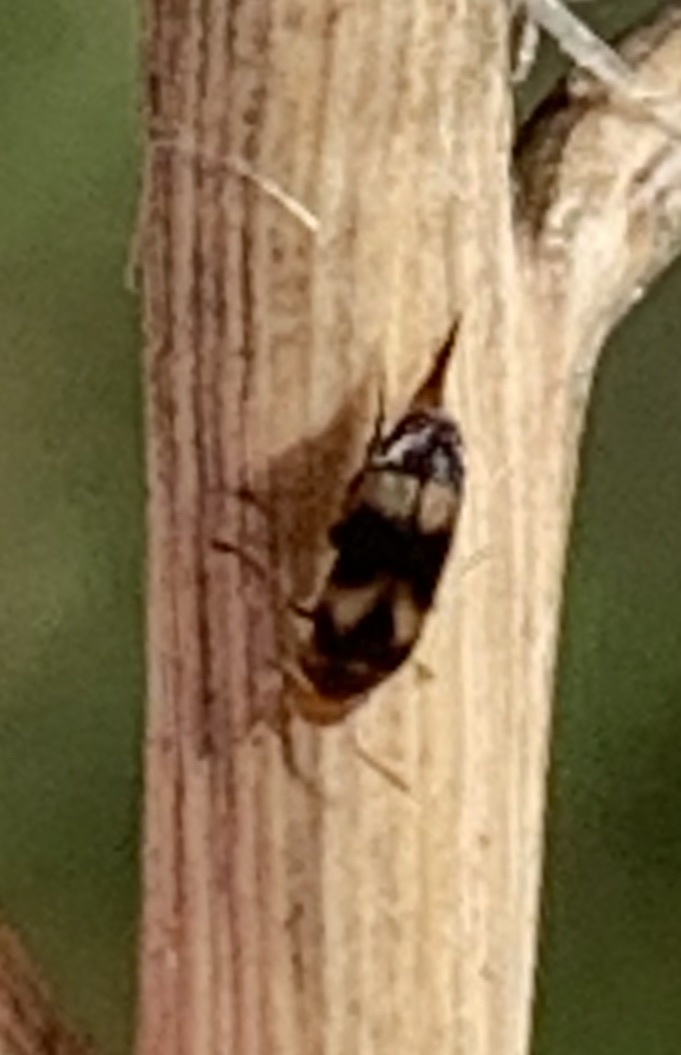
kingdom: Animalia
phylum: Arthropoda
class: Insecta
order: Coleoptera
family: Mordellidae
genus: Mordellistena
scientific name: Mordellistena trifasciata
